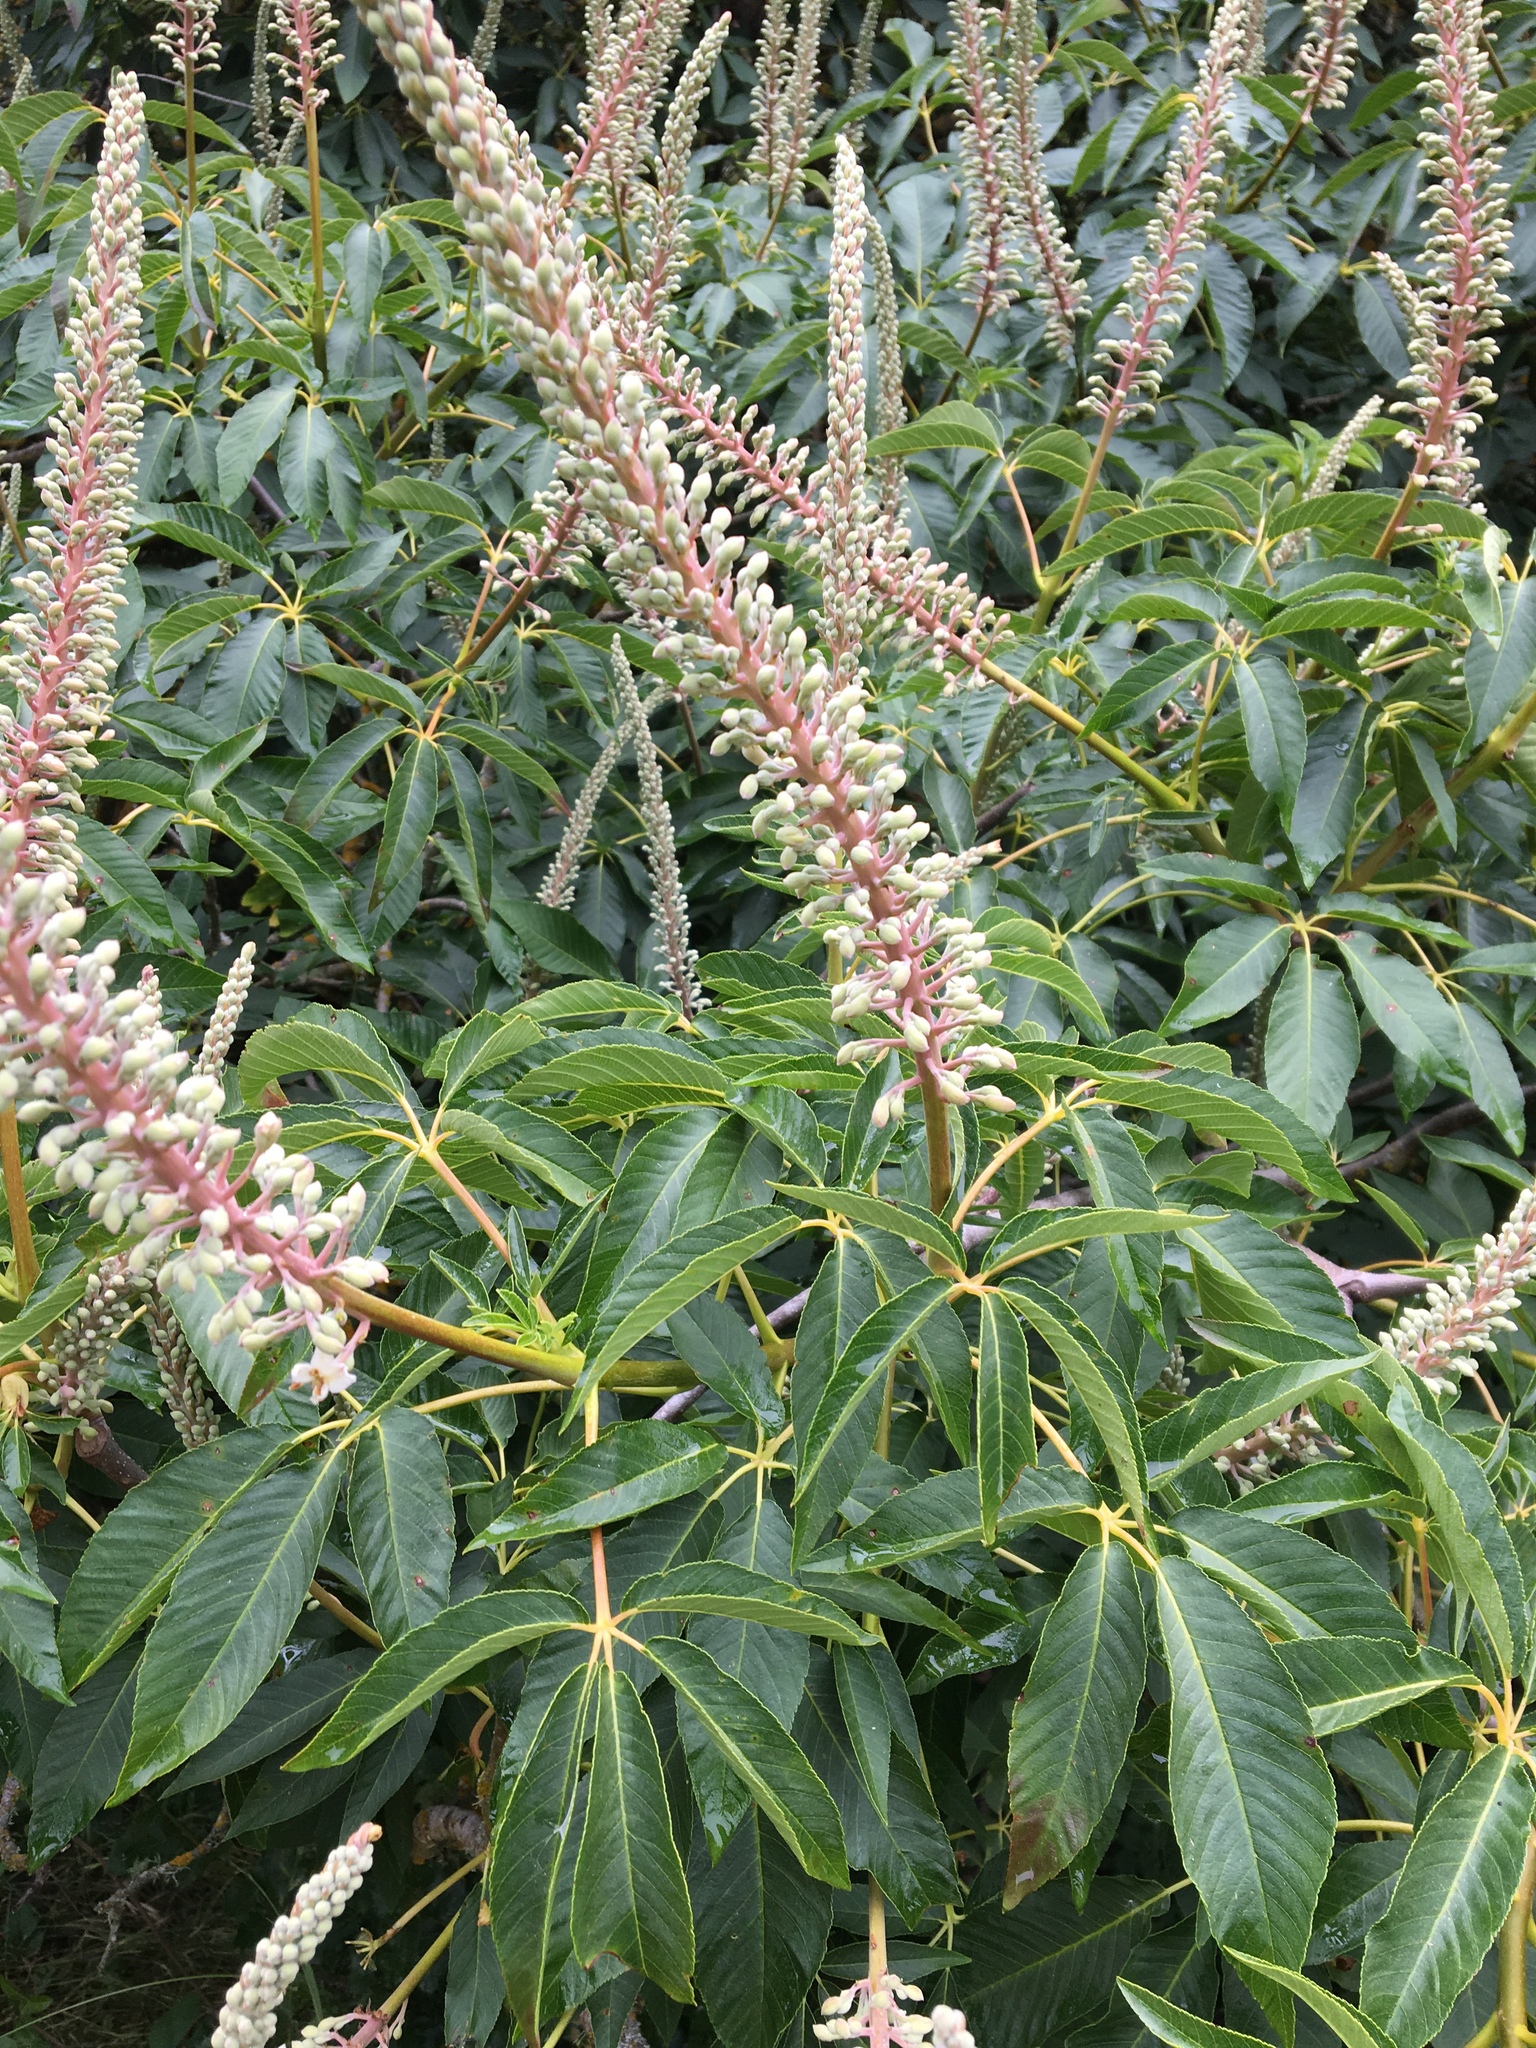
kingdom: Plantae
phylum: Tracheophyta
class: Magnoliopsida
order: Sapindales
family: Sapindaceae
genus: Aesculus
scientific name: Aesculus californica
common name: California buckeye
